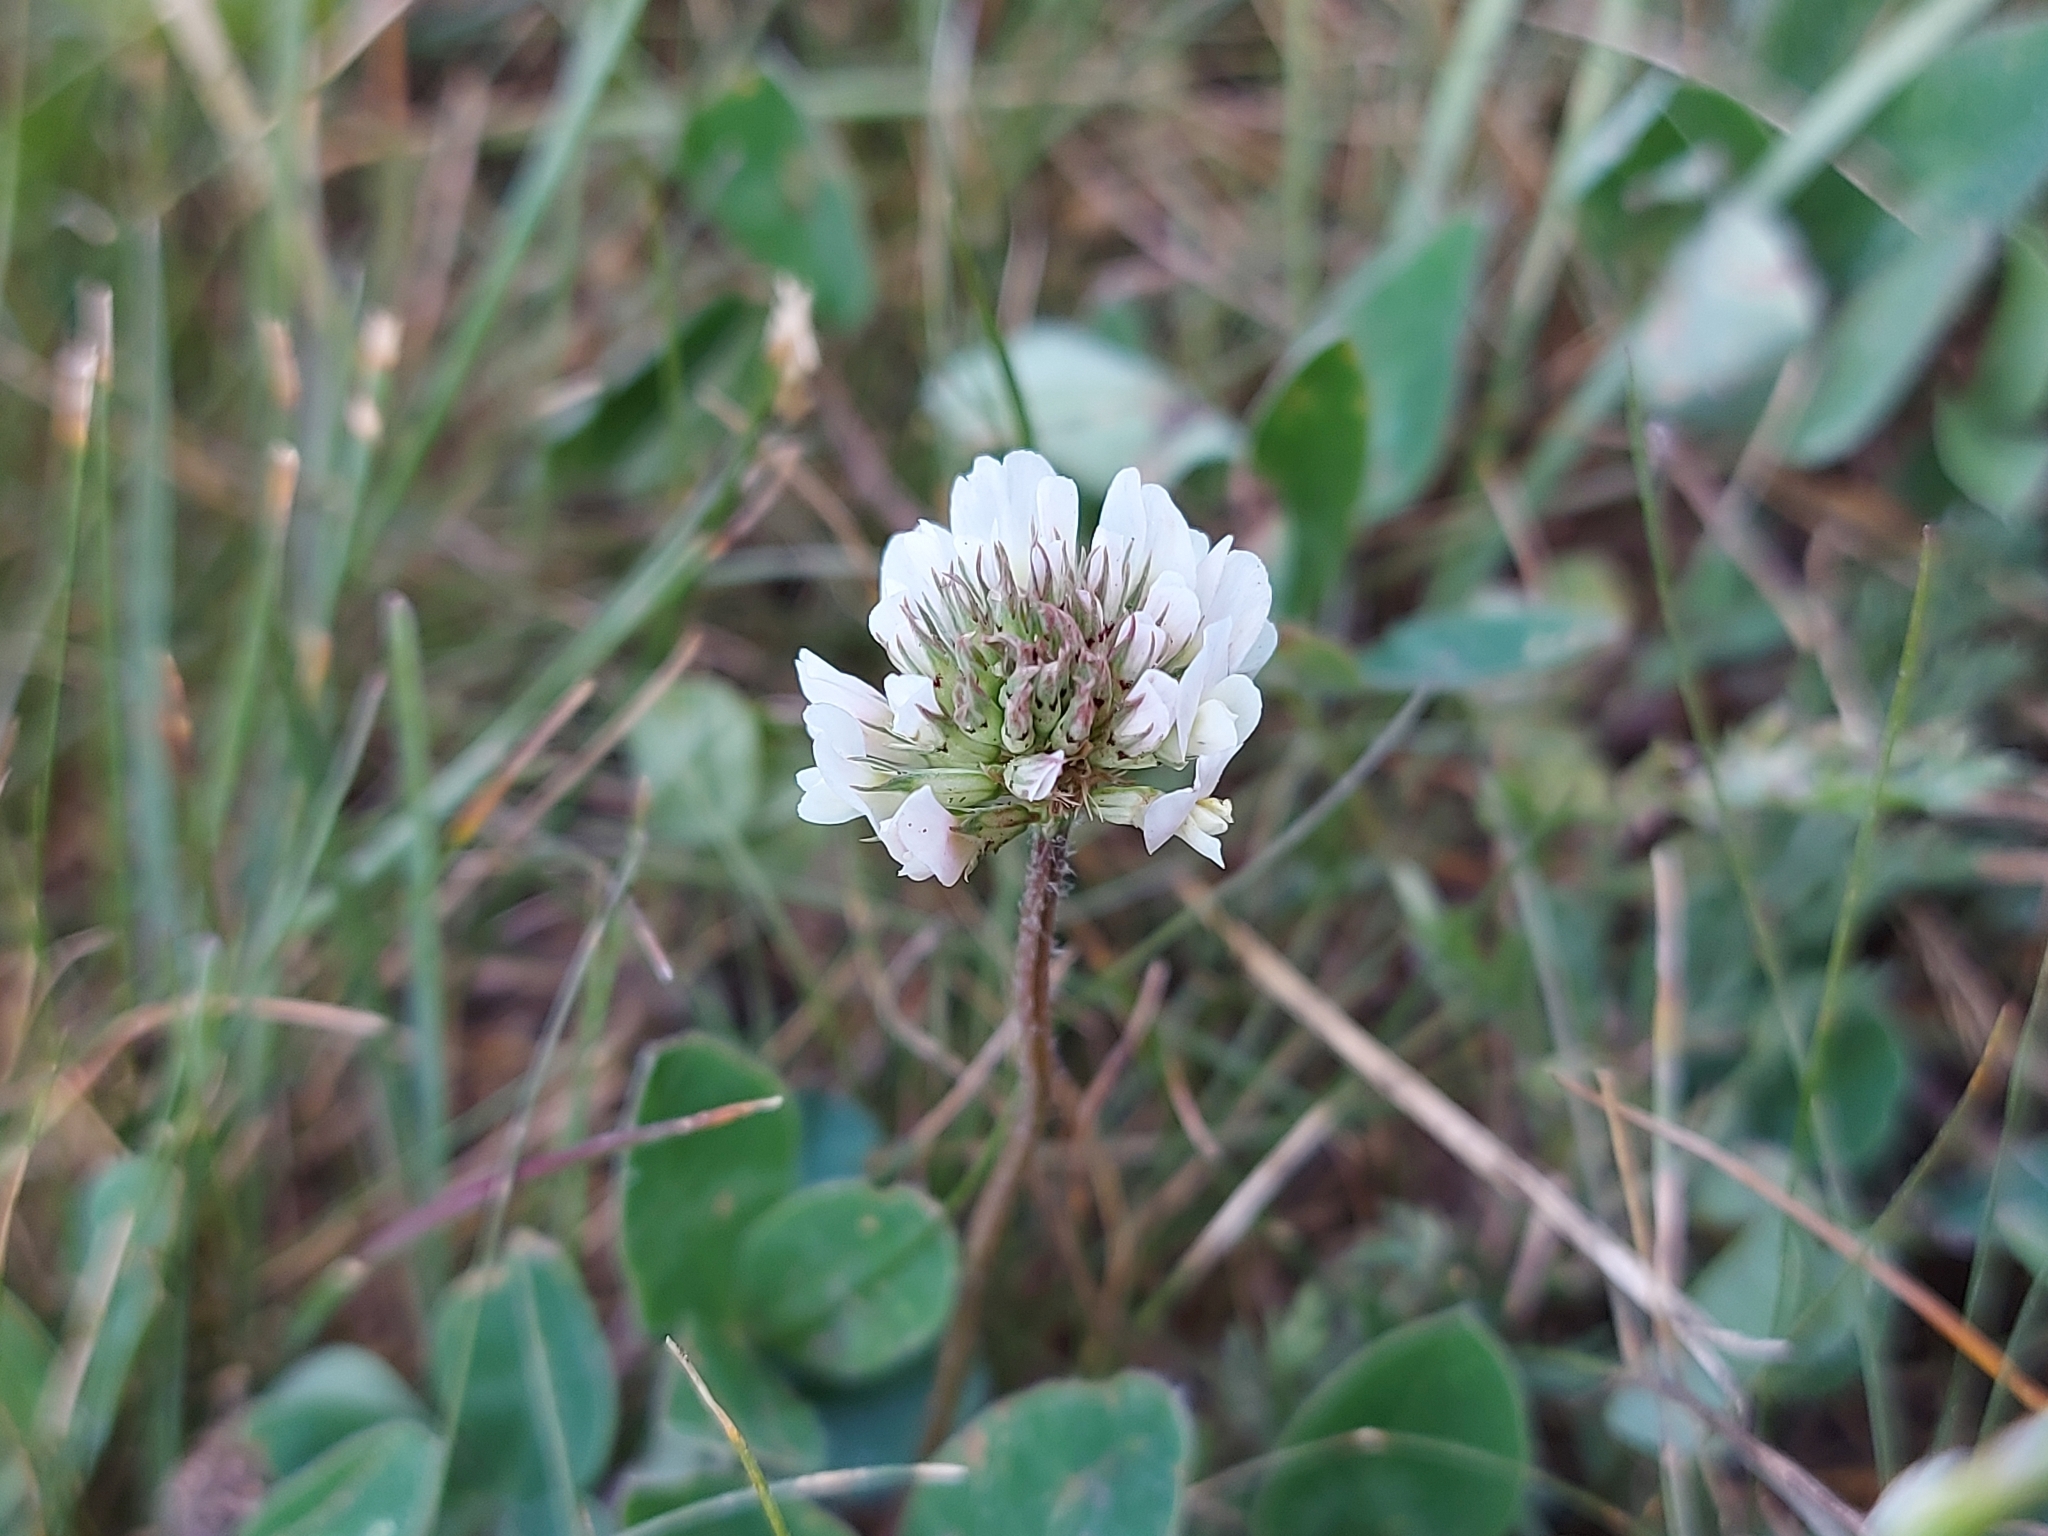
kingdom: Plantae
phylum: Tracheophyta
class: Magnoliopsida
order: Fabales
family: Fabaceae
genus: Trifolium
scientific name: Trifolium repens
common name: White clover
